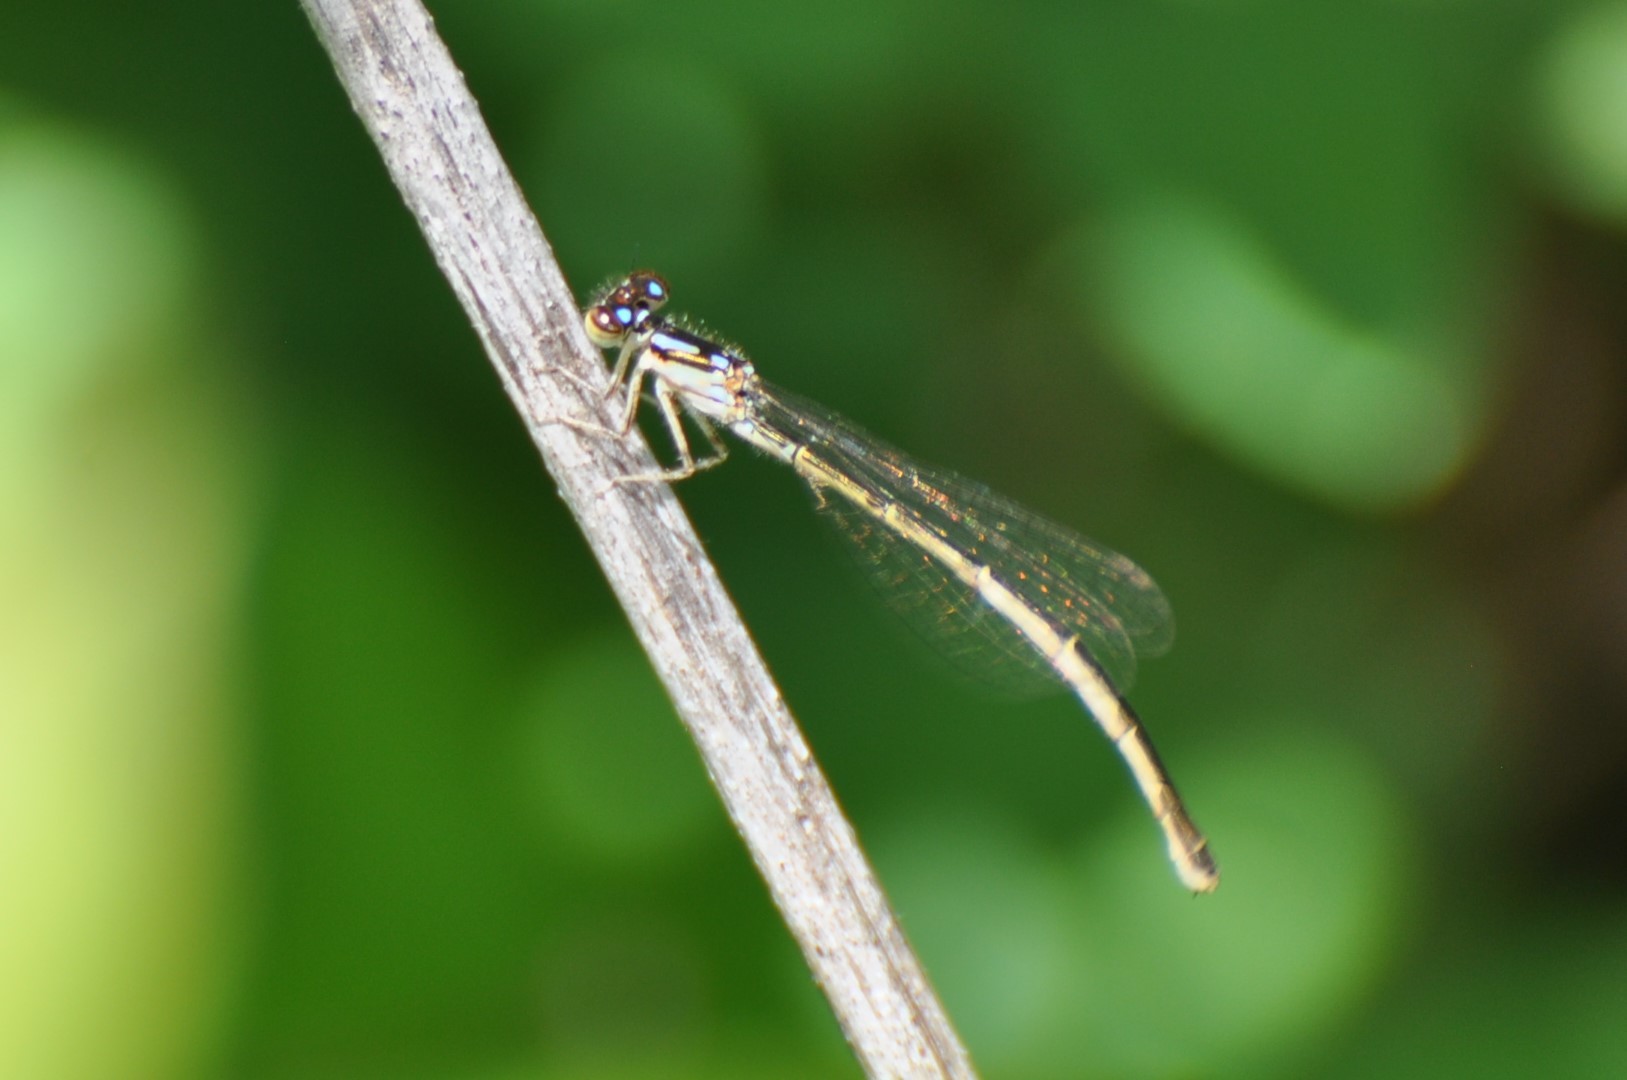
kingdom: Animalia
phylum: Arthropoda
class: Insecta
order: Odonata
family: Coenagrionidae
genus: Ischnura
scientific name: Ischnura posita
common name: Fragile forktail
